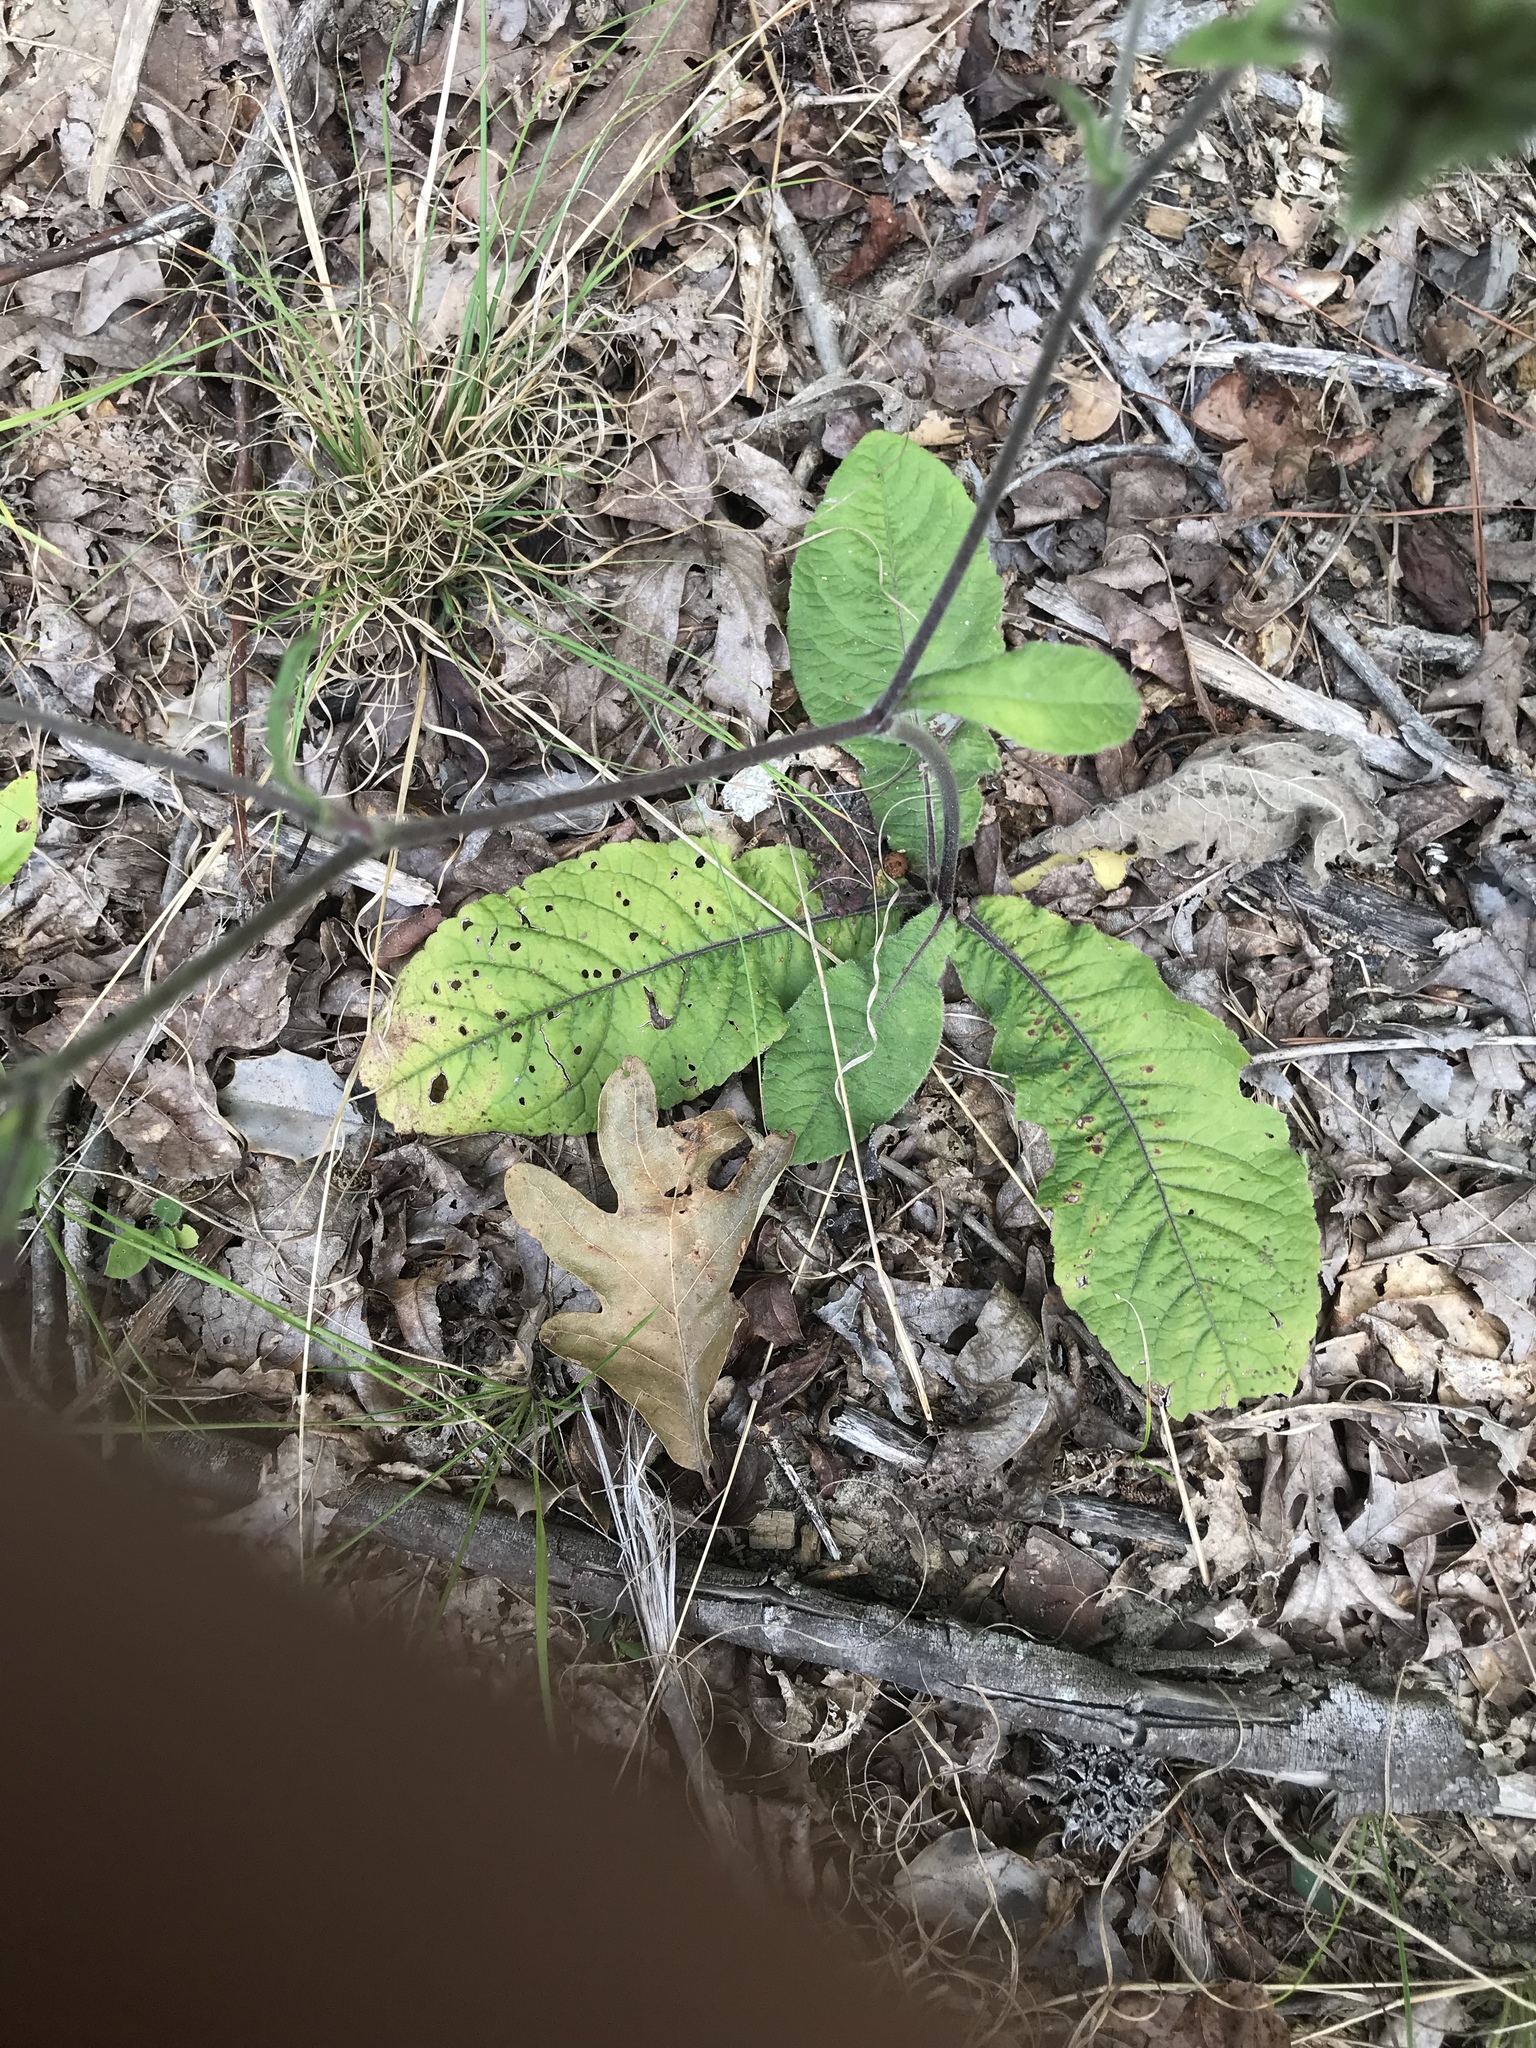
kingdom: Plantae
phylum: Tracheophyta
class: Magnoliopsida
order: Asterales
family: Asteraceae
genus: Elephantopus
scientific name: Elephantopus tomentosus
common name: Tobacco-weed
